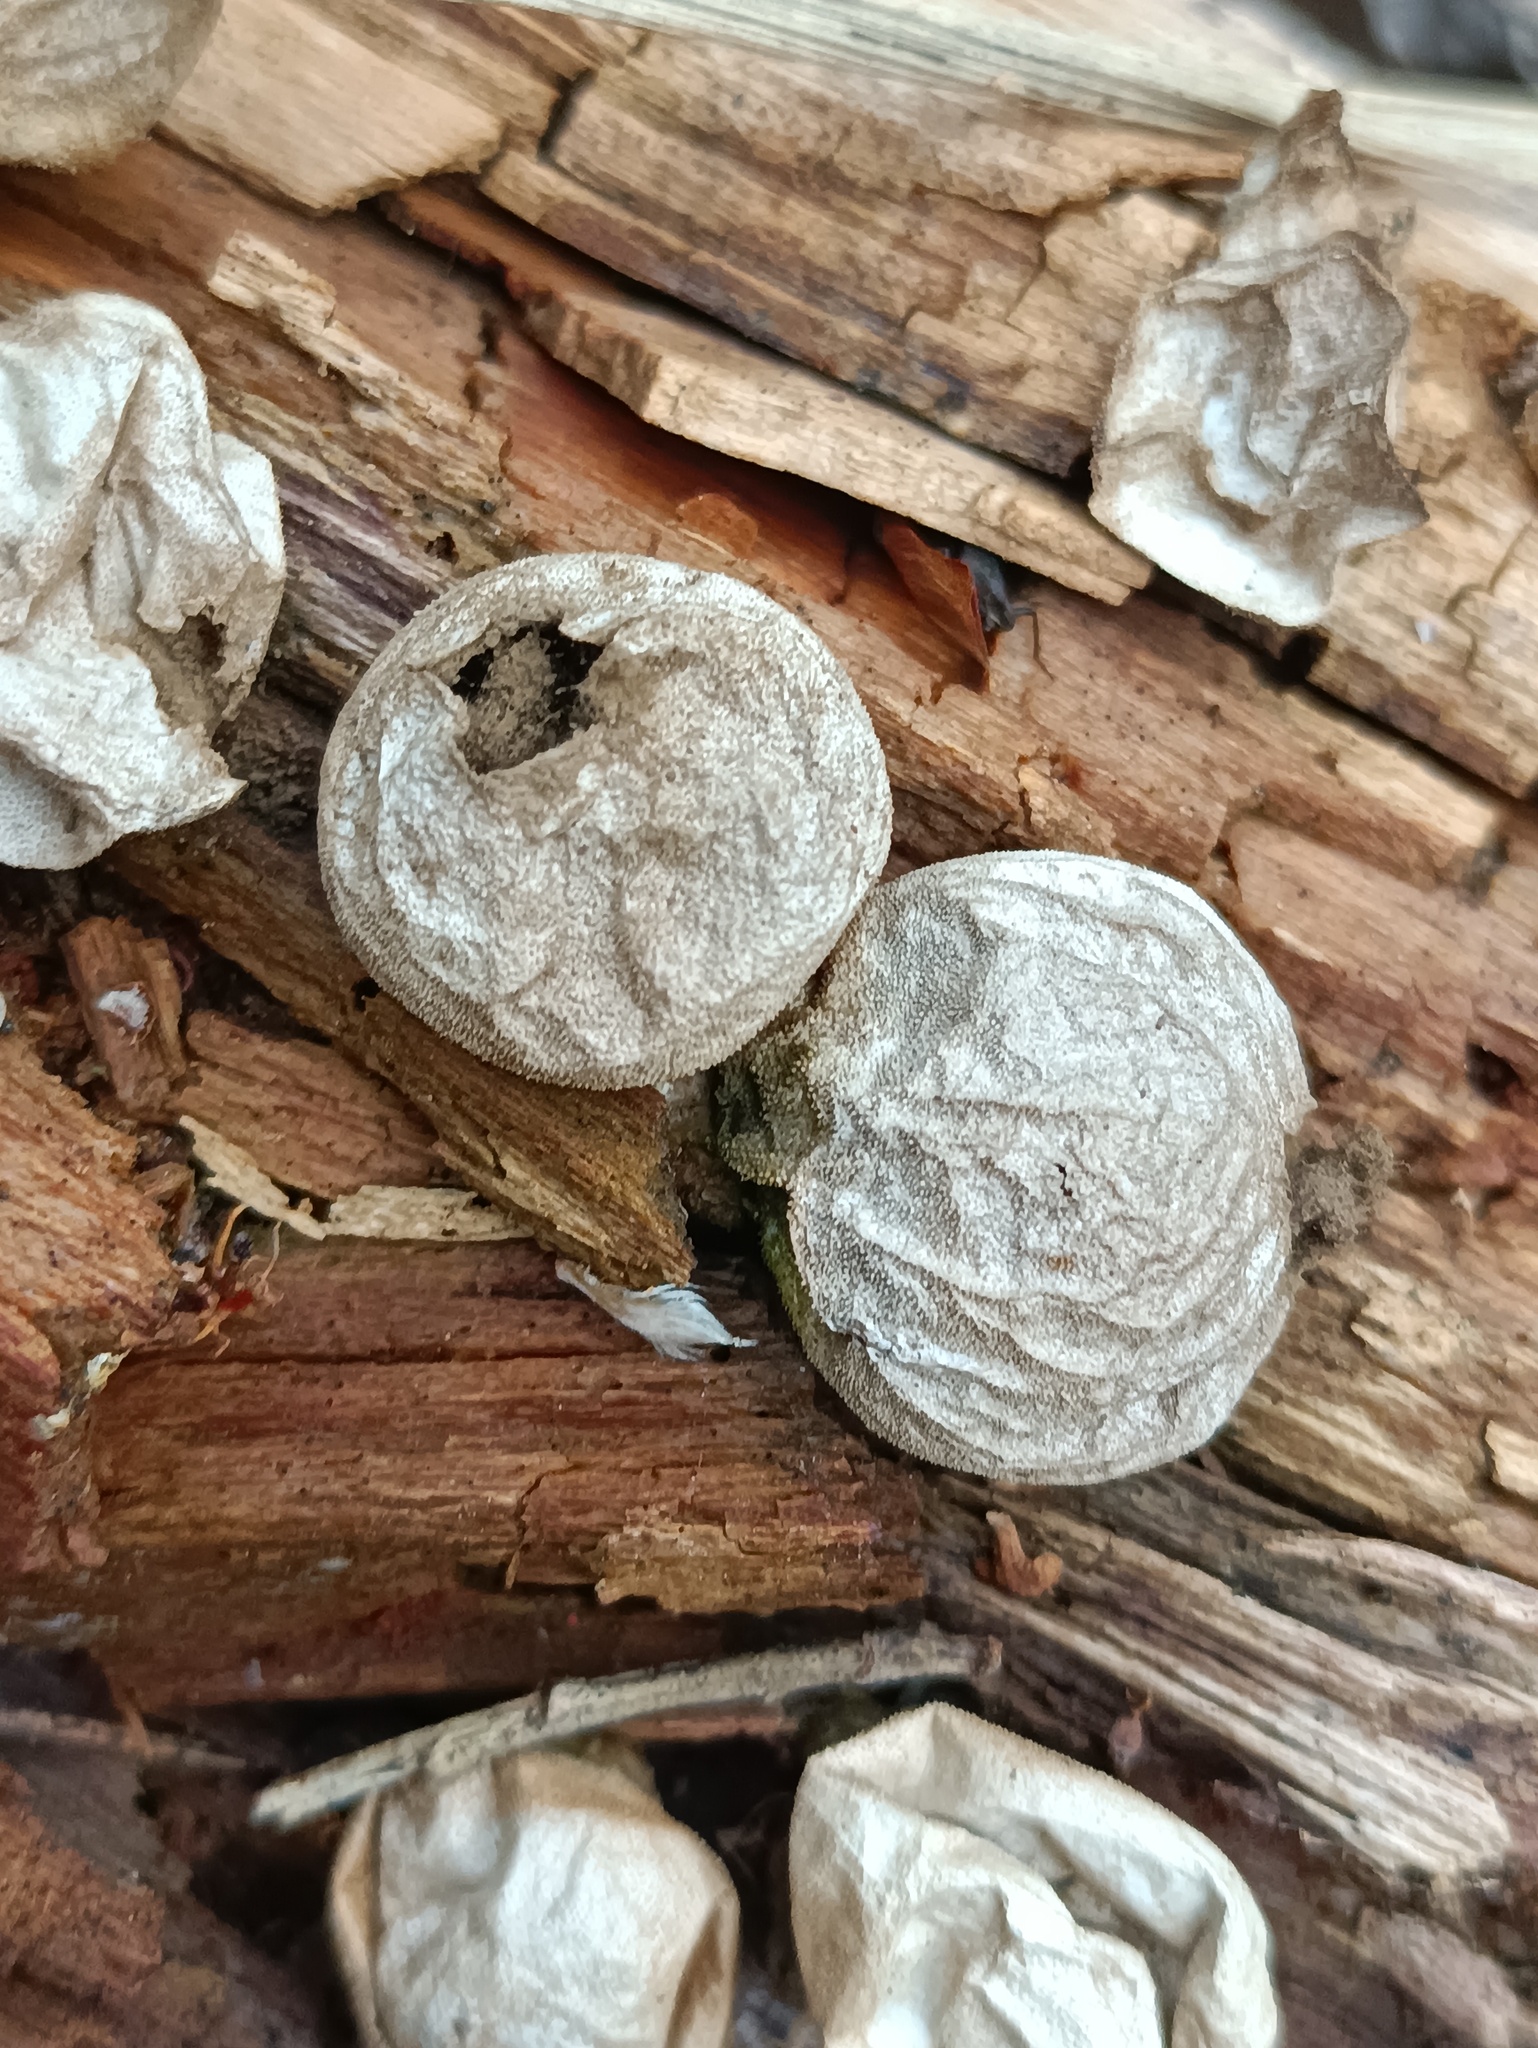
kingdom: Fungi
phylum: Basidiomycota
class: Agaricomycetes
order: Agaricales
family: Lycoperdaceae
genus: Apioperdon
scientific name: Apioperdon pyriforme
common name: Pear-shaped puffball
